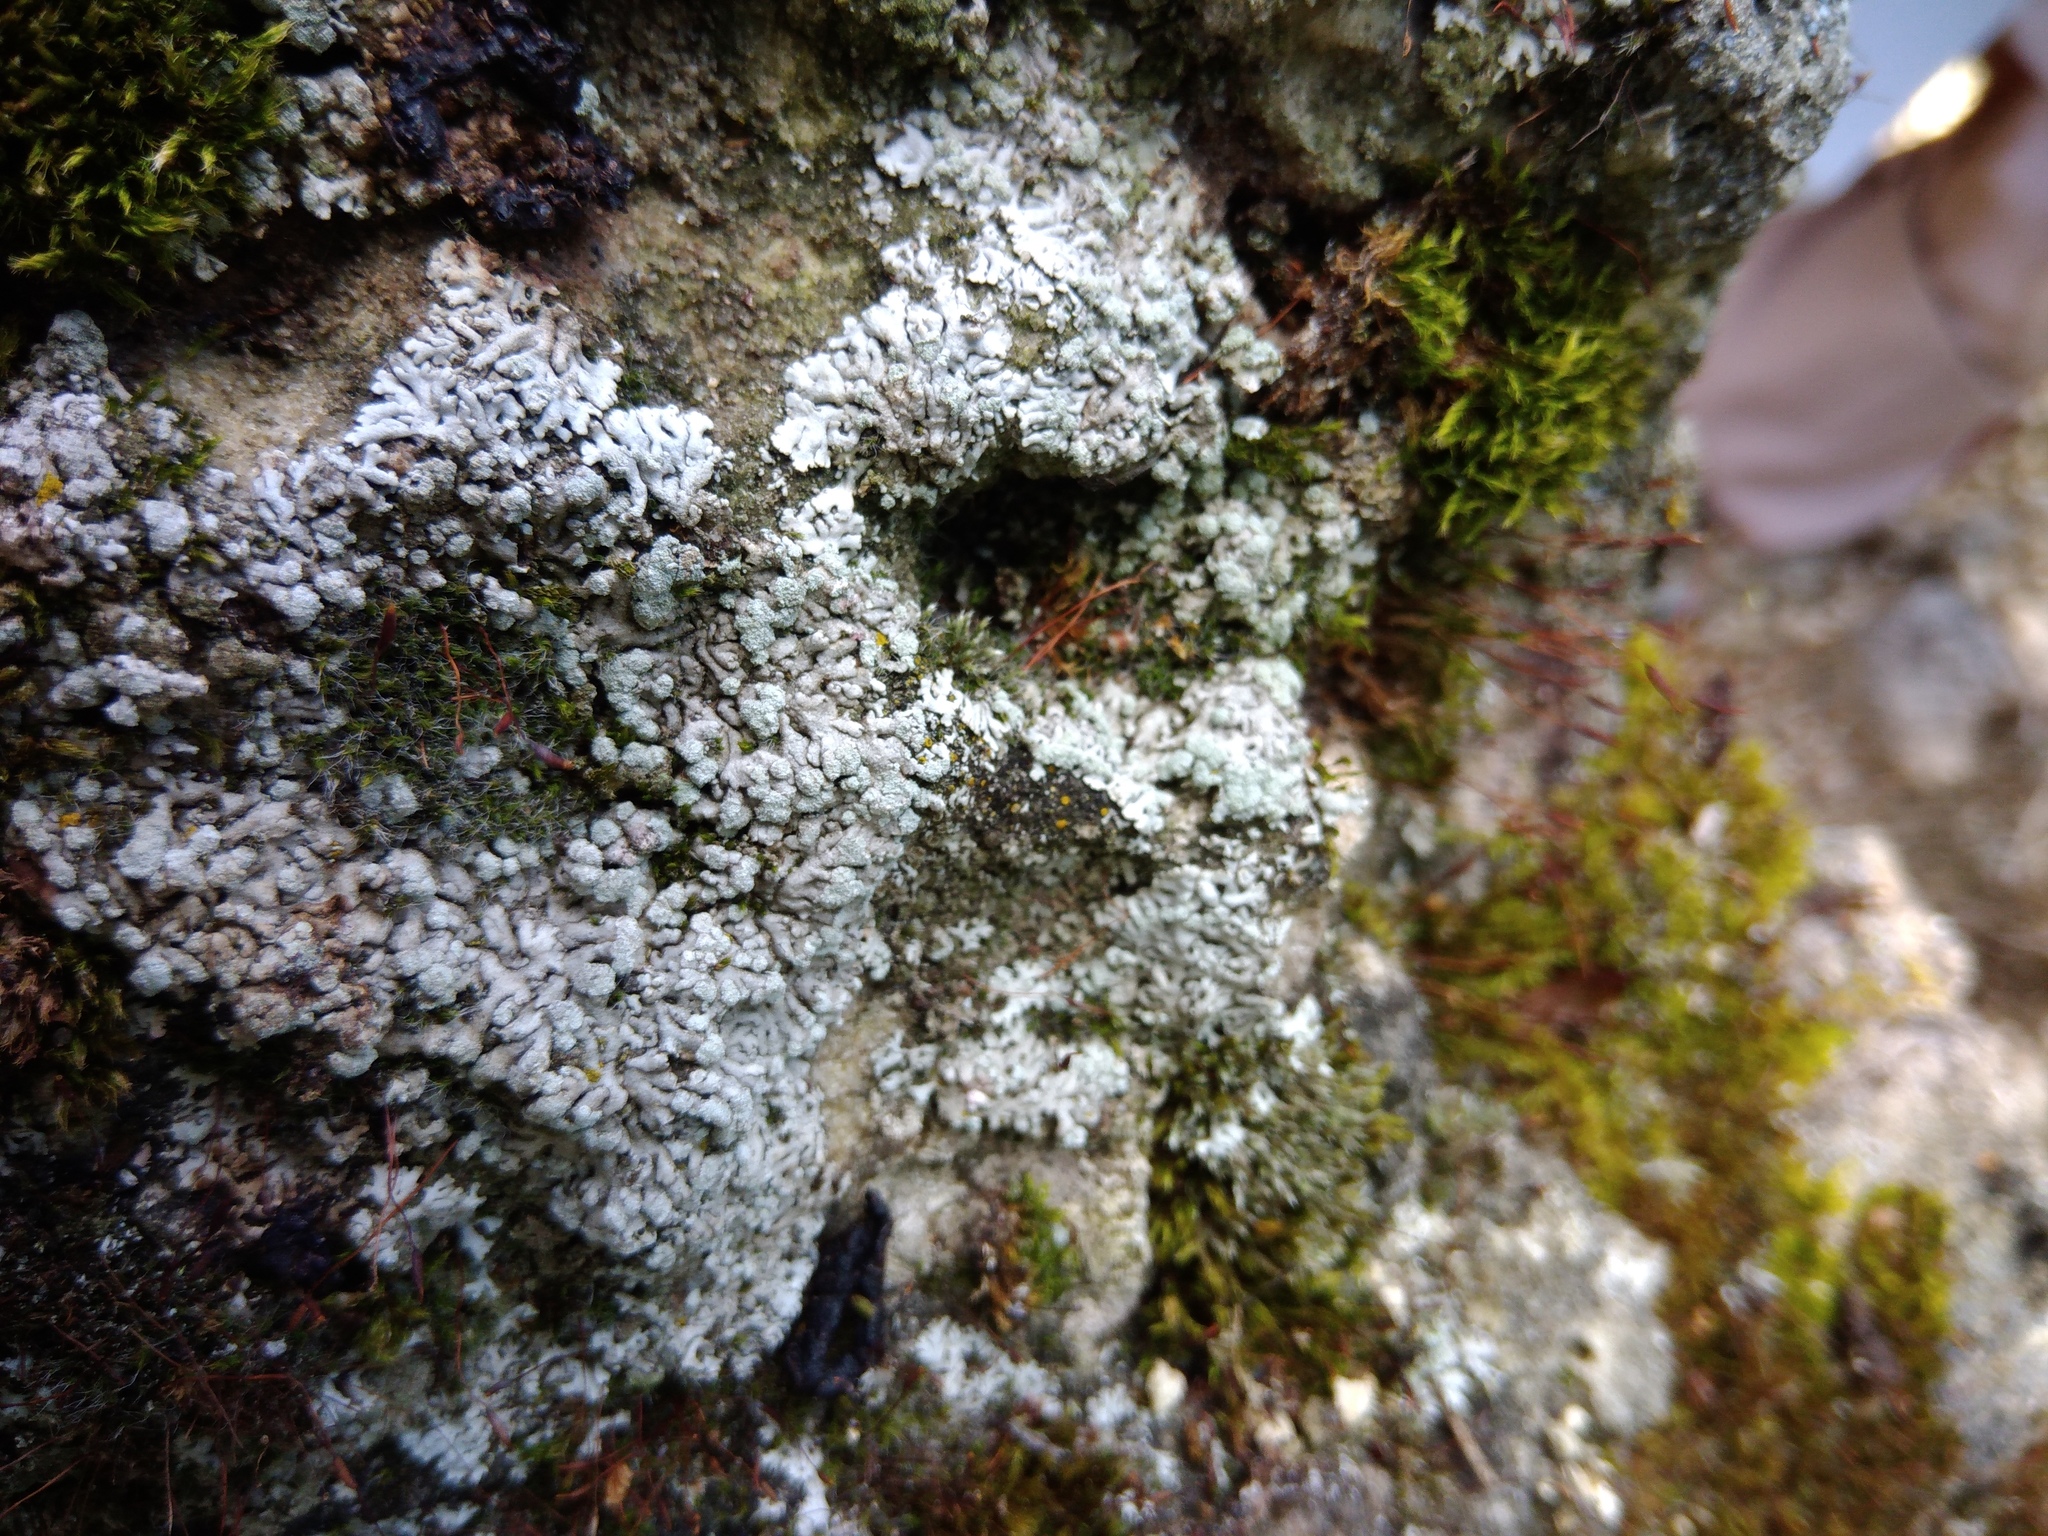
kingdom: Fungi
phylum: Ascomycota
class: Lecanoromycetes
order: Caliciales
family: Physciaceae
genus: Physcia
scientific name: Physcia caesia
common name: Blue-gray rosette lichen
